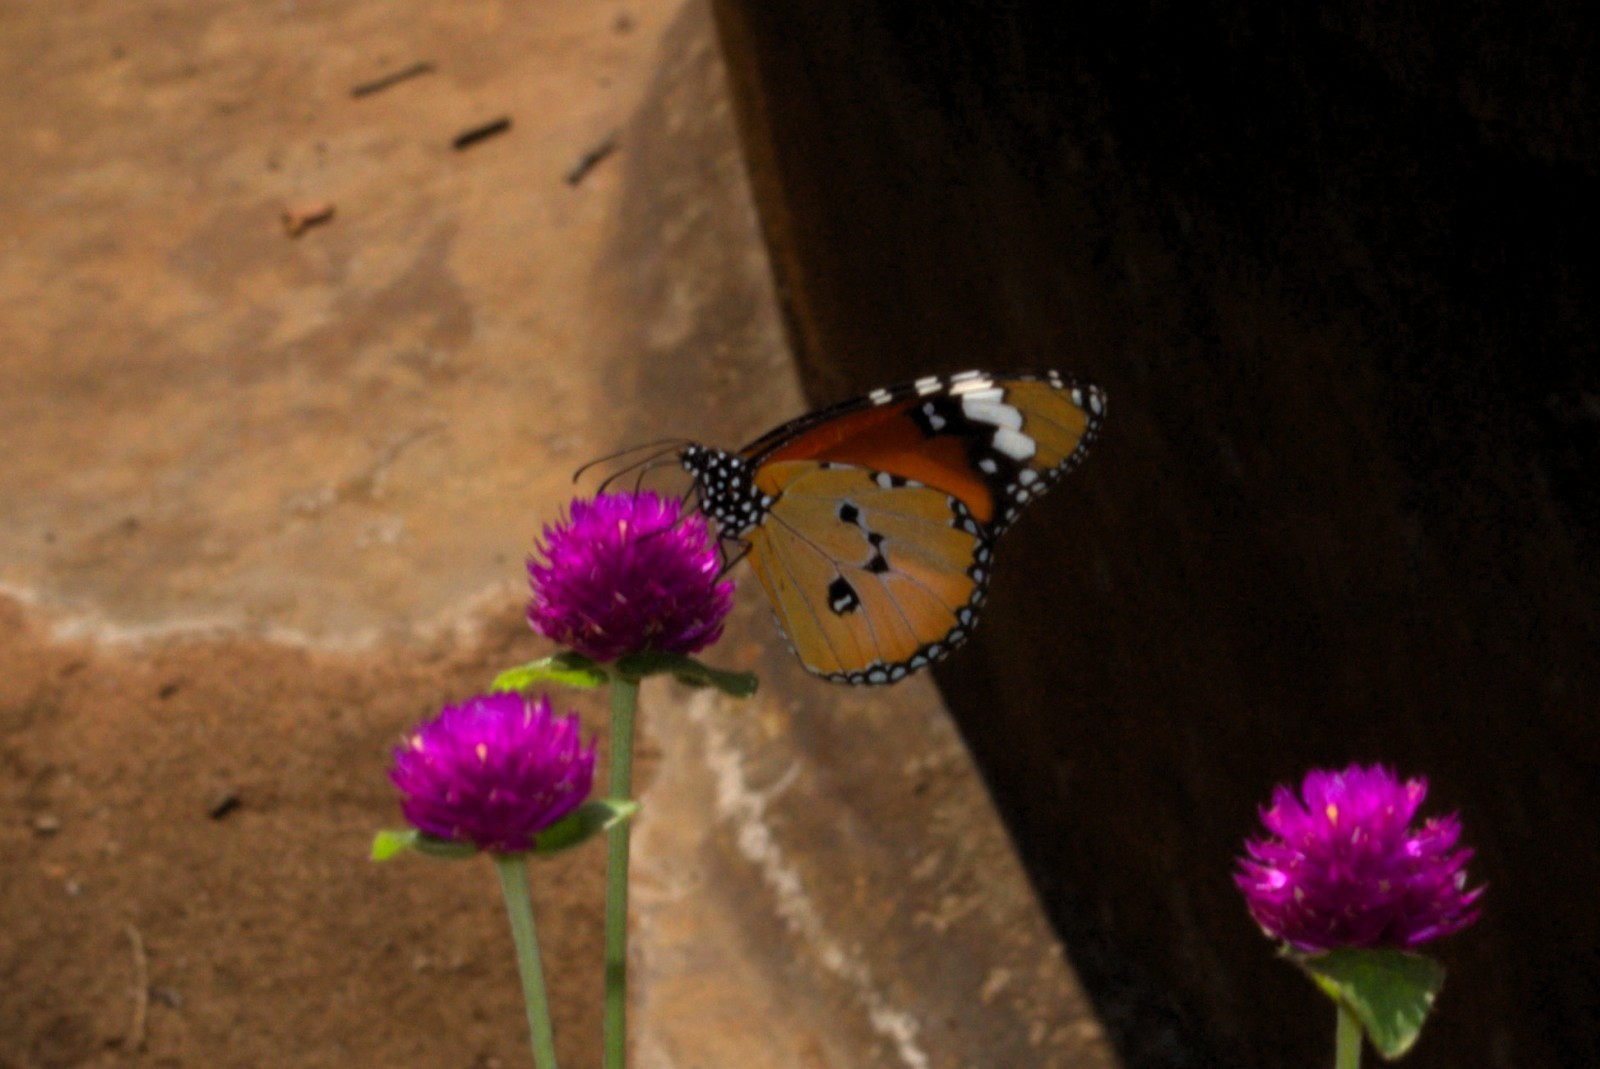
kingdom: Animalia
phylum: Arthropoda
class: Insecta
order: Lepidoptera
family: Nymphalidae
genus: Danaus
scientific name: Danaus chrysippus
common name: Plain tiger
